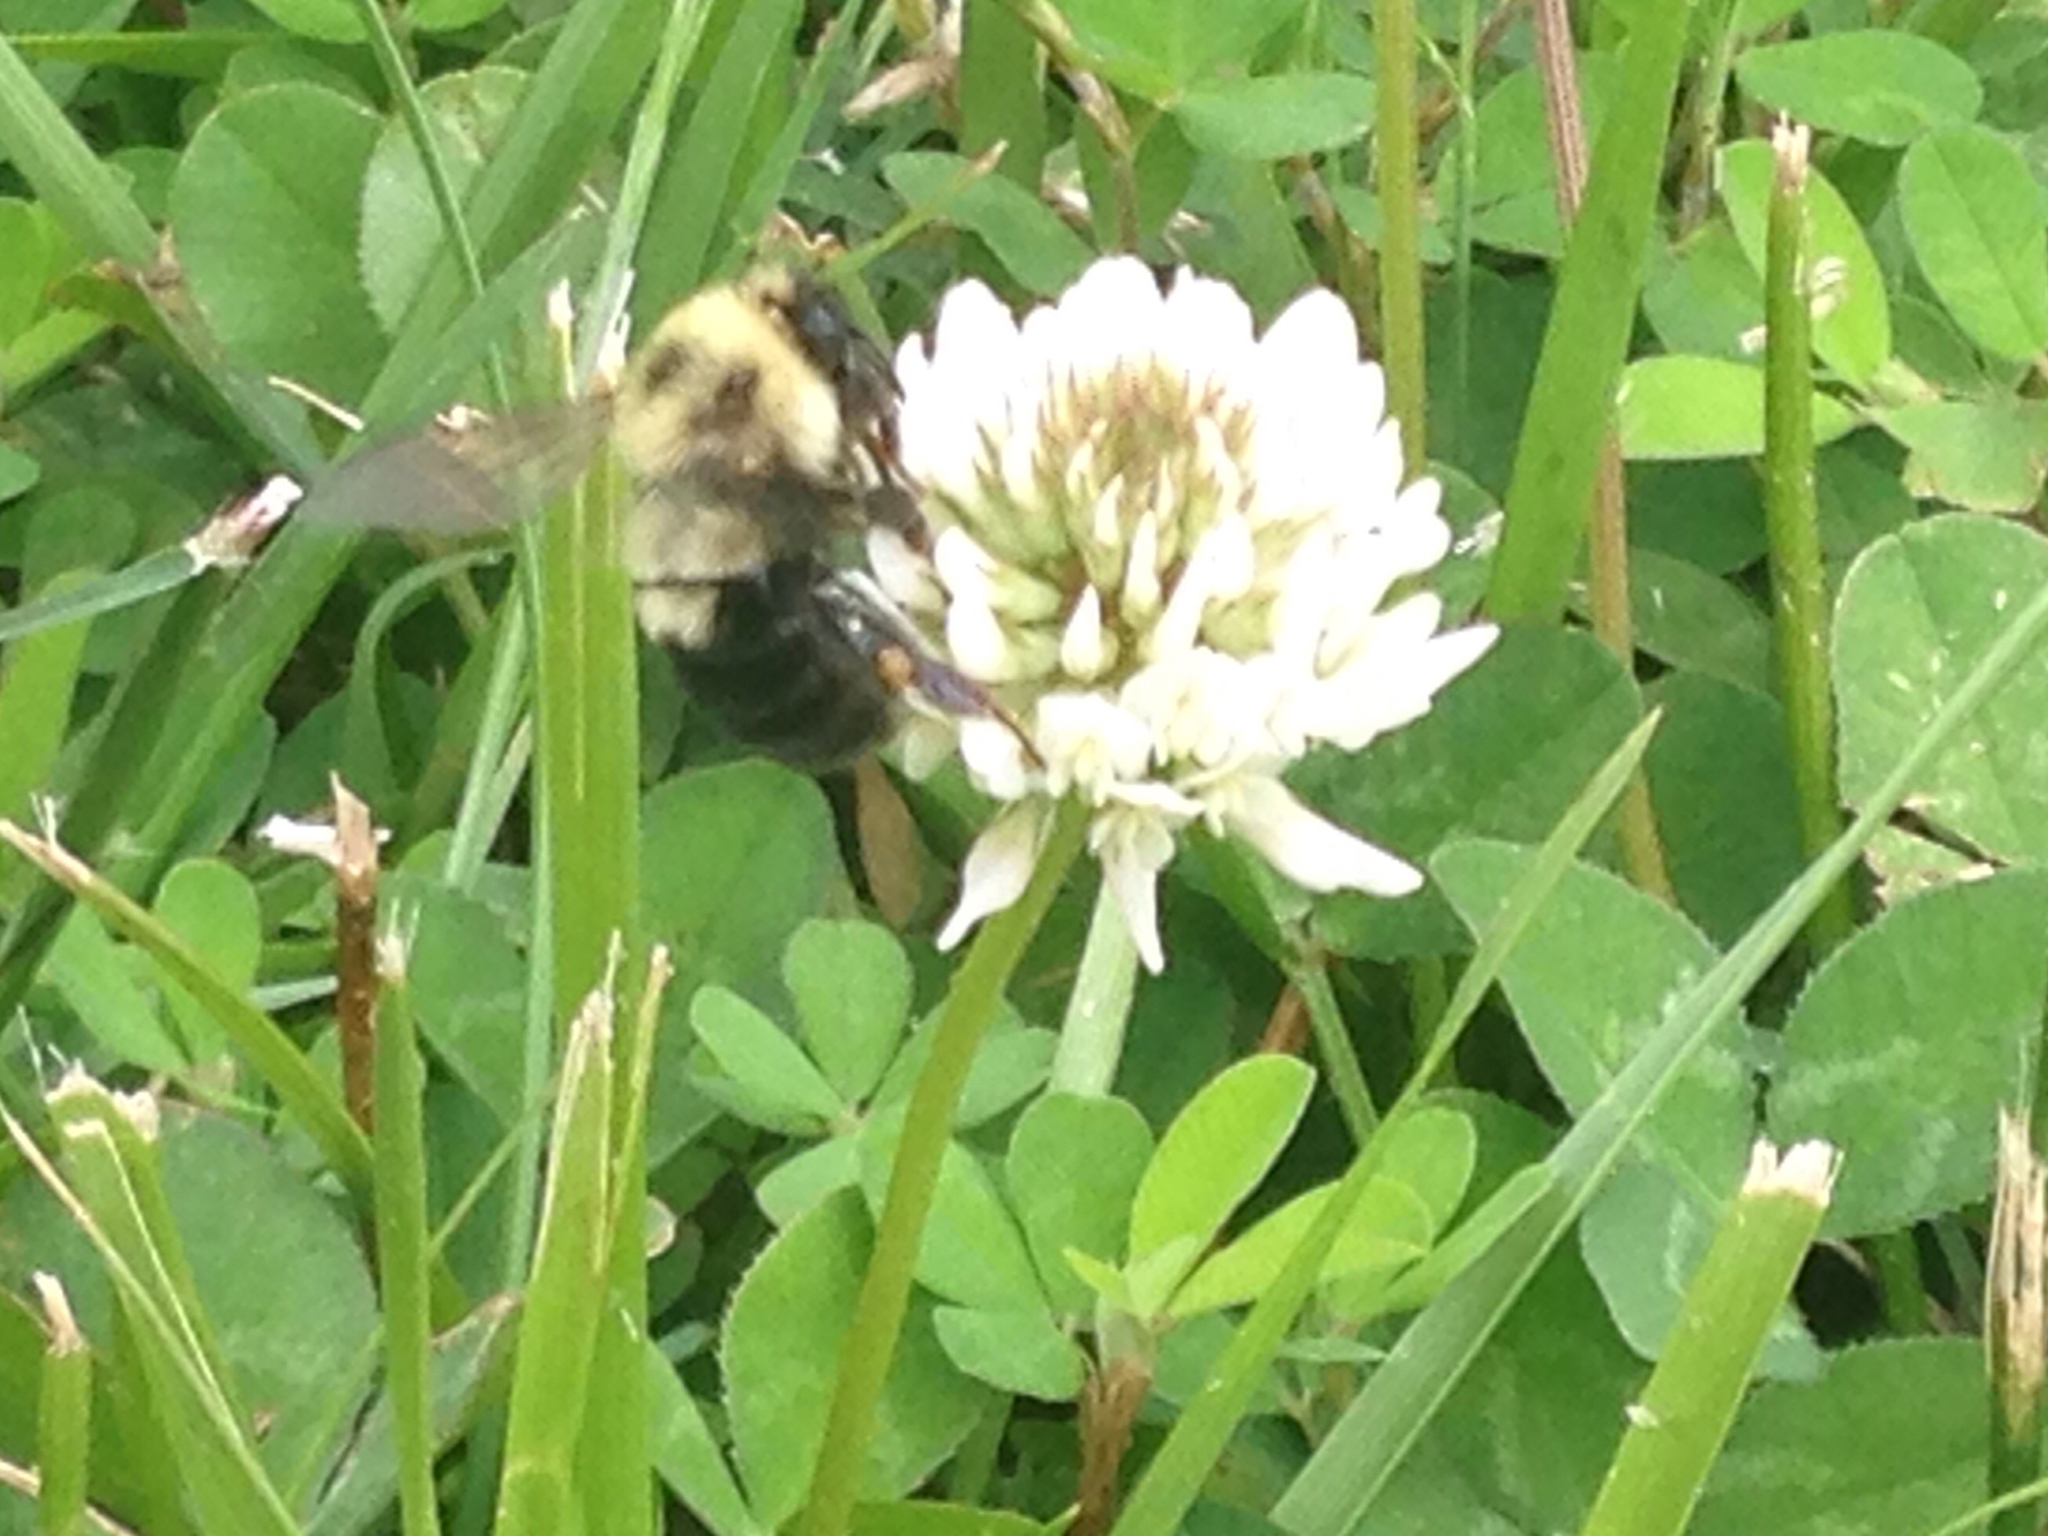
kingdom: Animalia
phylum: Arthropoda
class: Insecta
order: Hymenoptera
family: Apidae
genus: Bombus
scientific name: Bombus bimaculatus
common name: Two-spotted bumble bee
